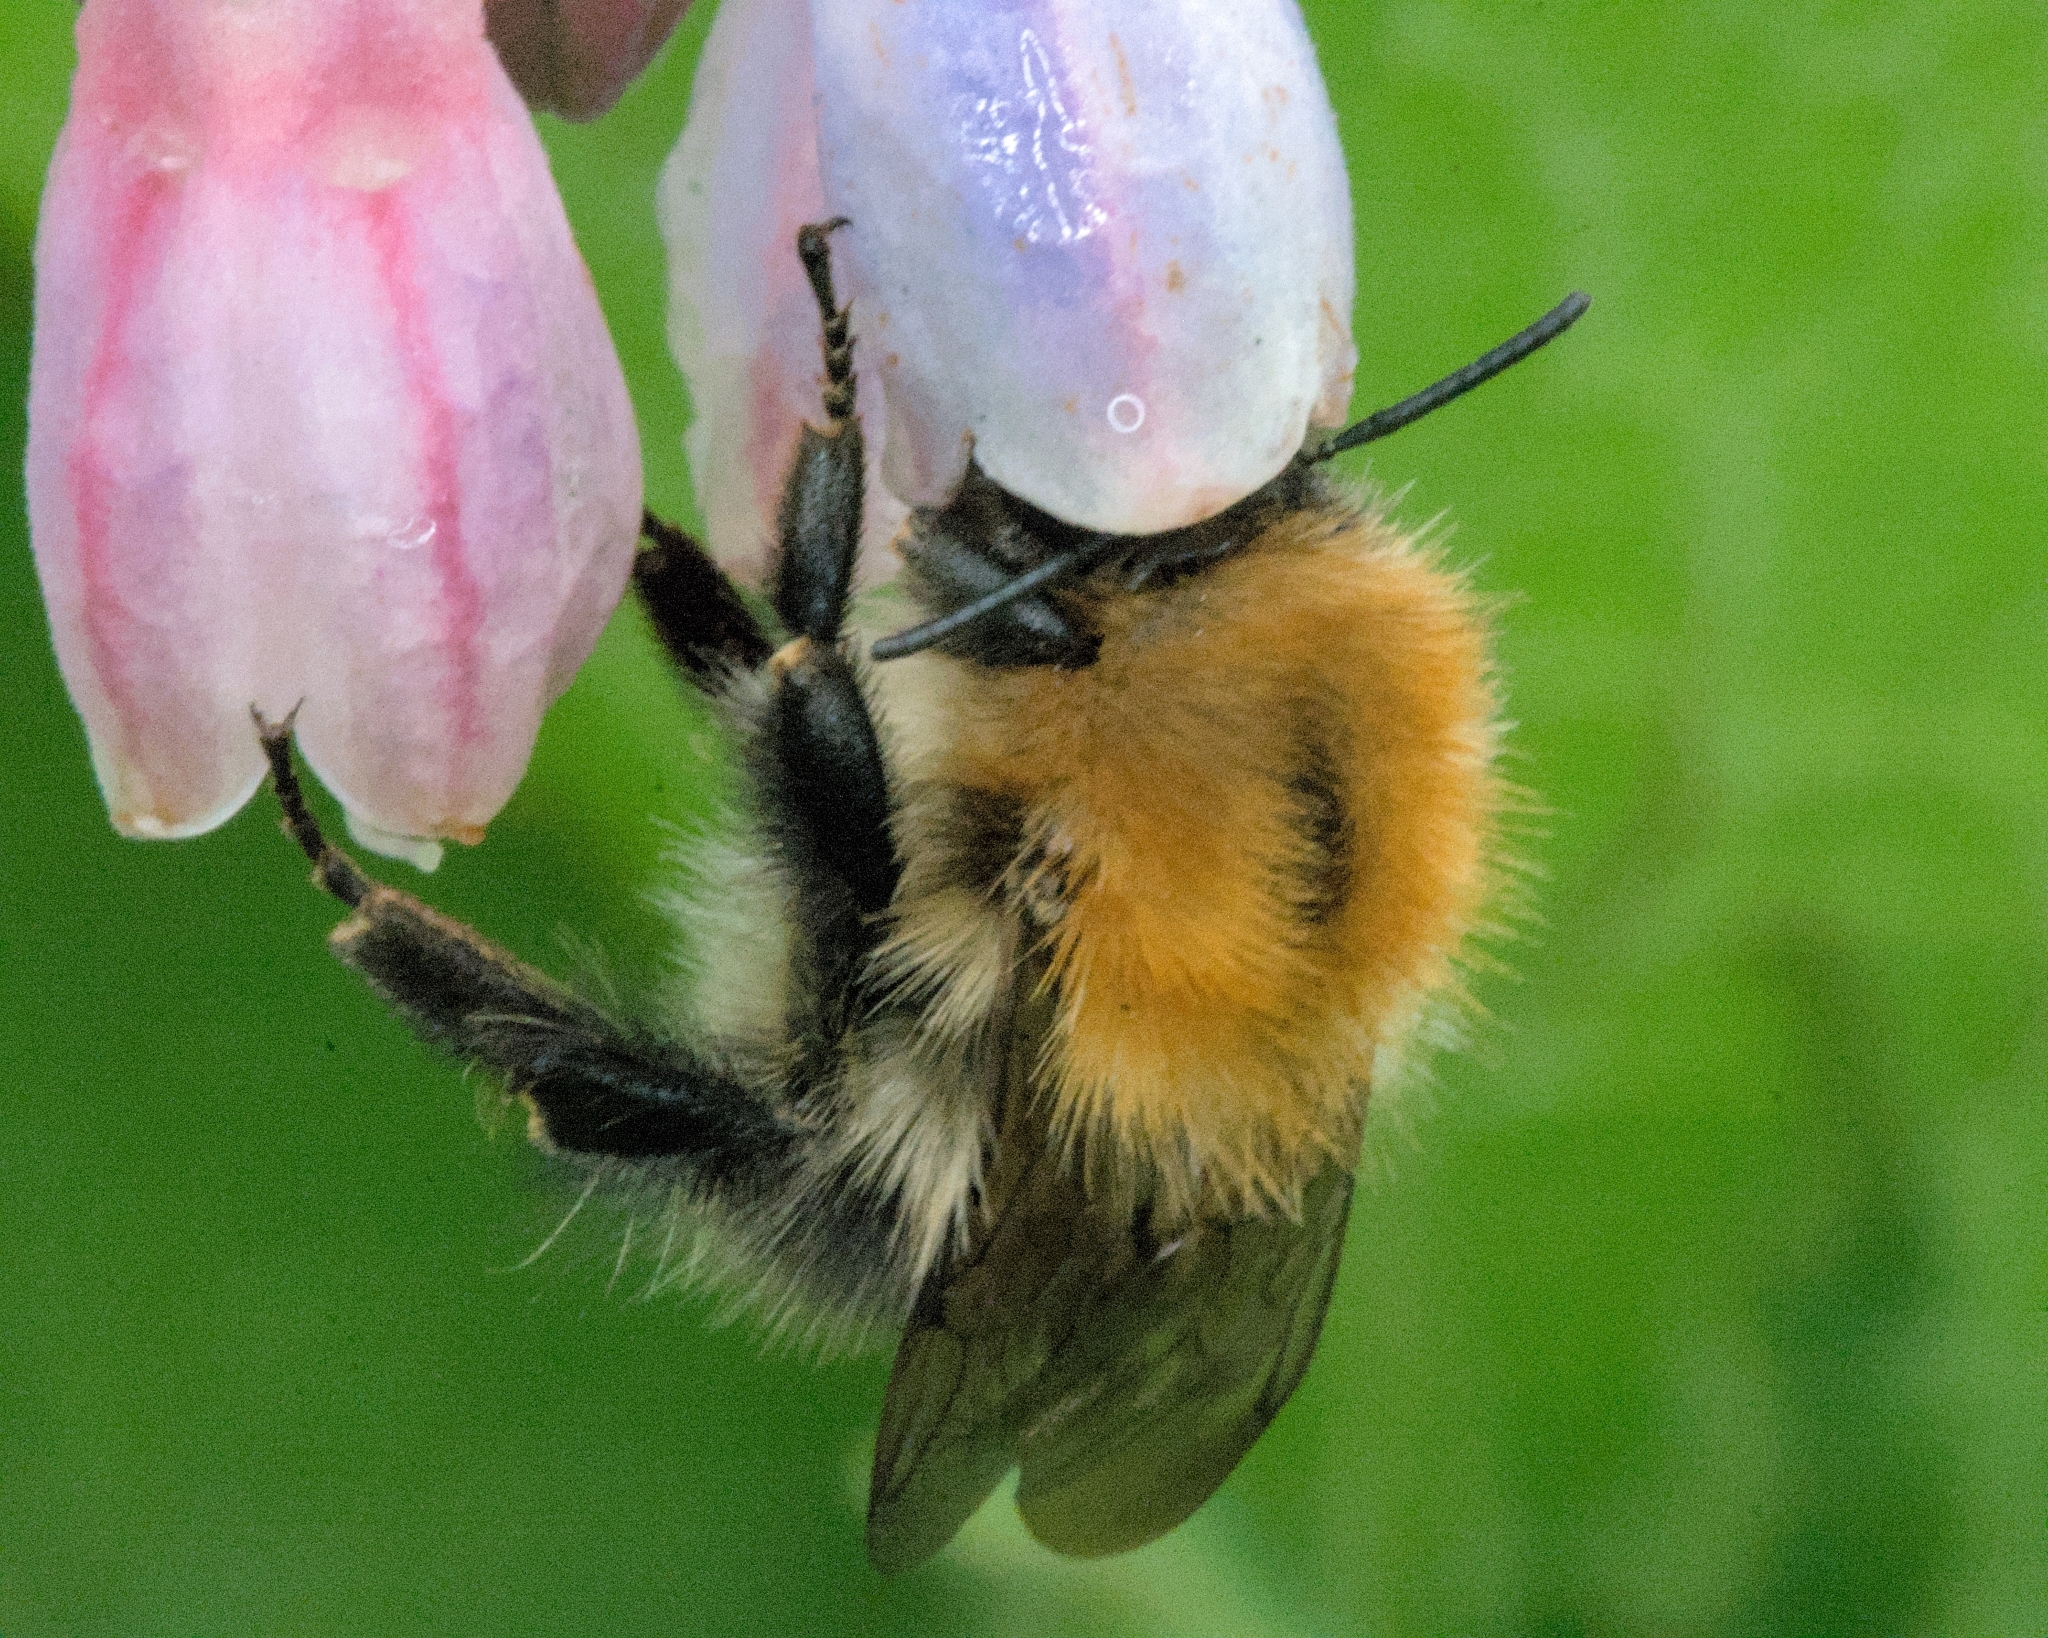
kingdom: Animalia
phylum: Arthropoda
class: Insecta
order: Hymenoptera
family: Apidae
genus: Bombus
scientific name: Bombus pascuorum
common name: Common carder bee
